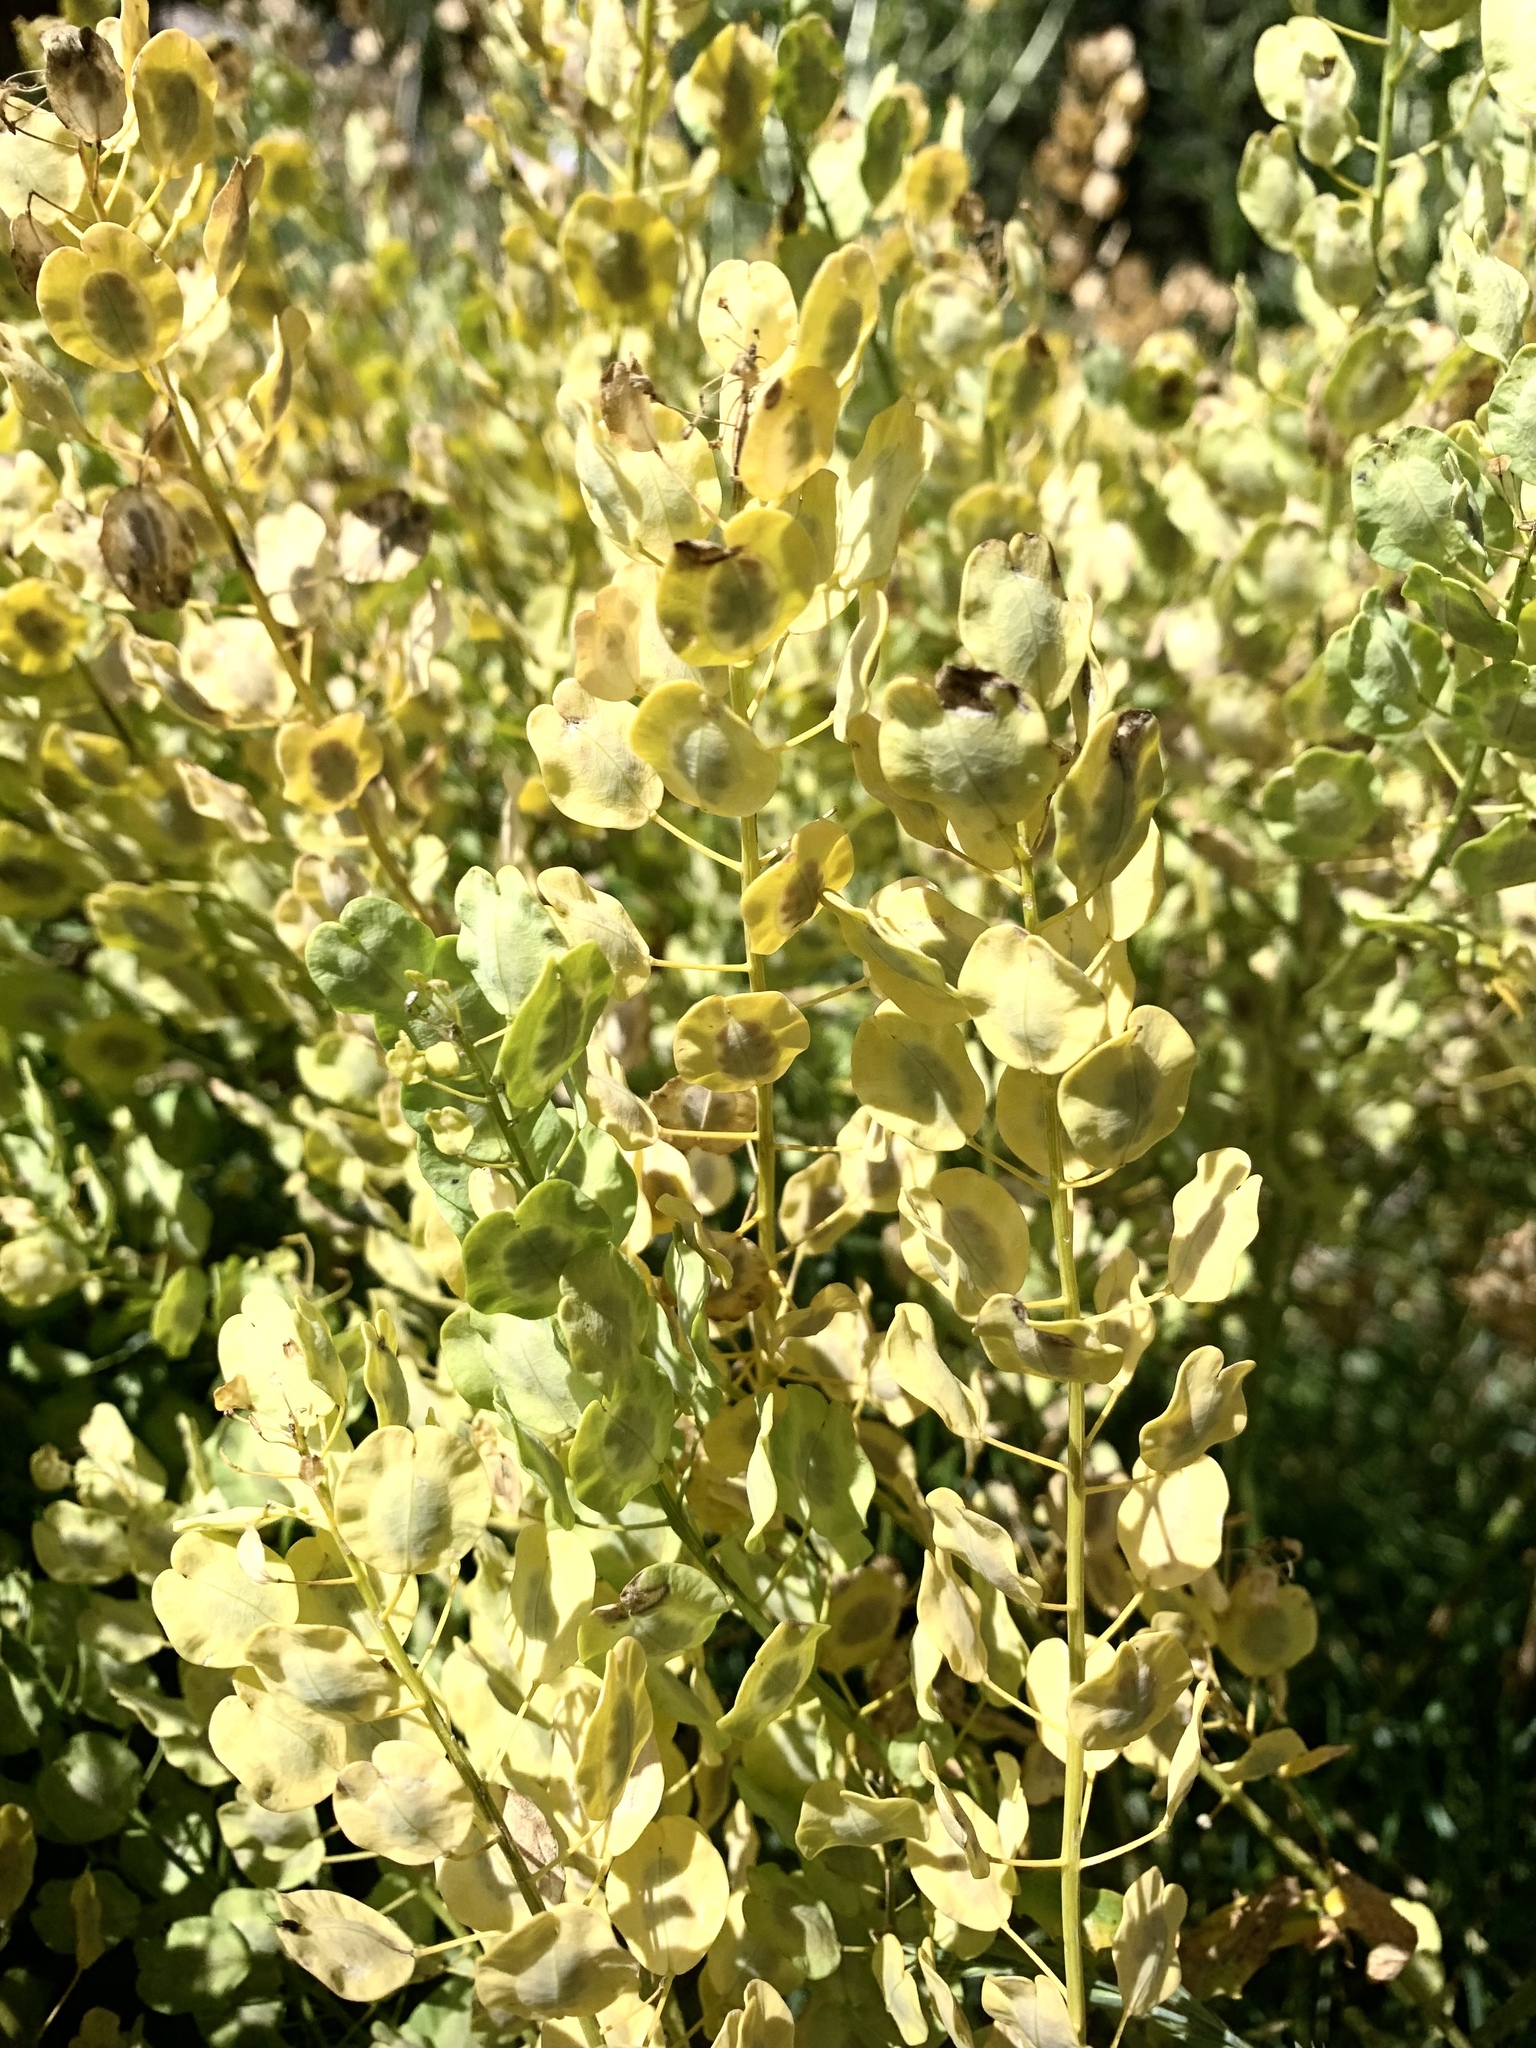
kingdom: Plantae
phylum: Tracheophyta
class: Magnoliopsida
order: Brassicales
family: Brassicaceae
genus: Thlaspi
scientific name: Thlaspi arvense
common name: Field pennycress
